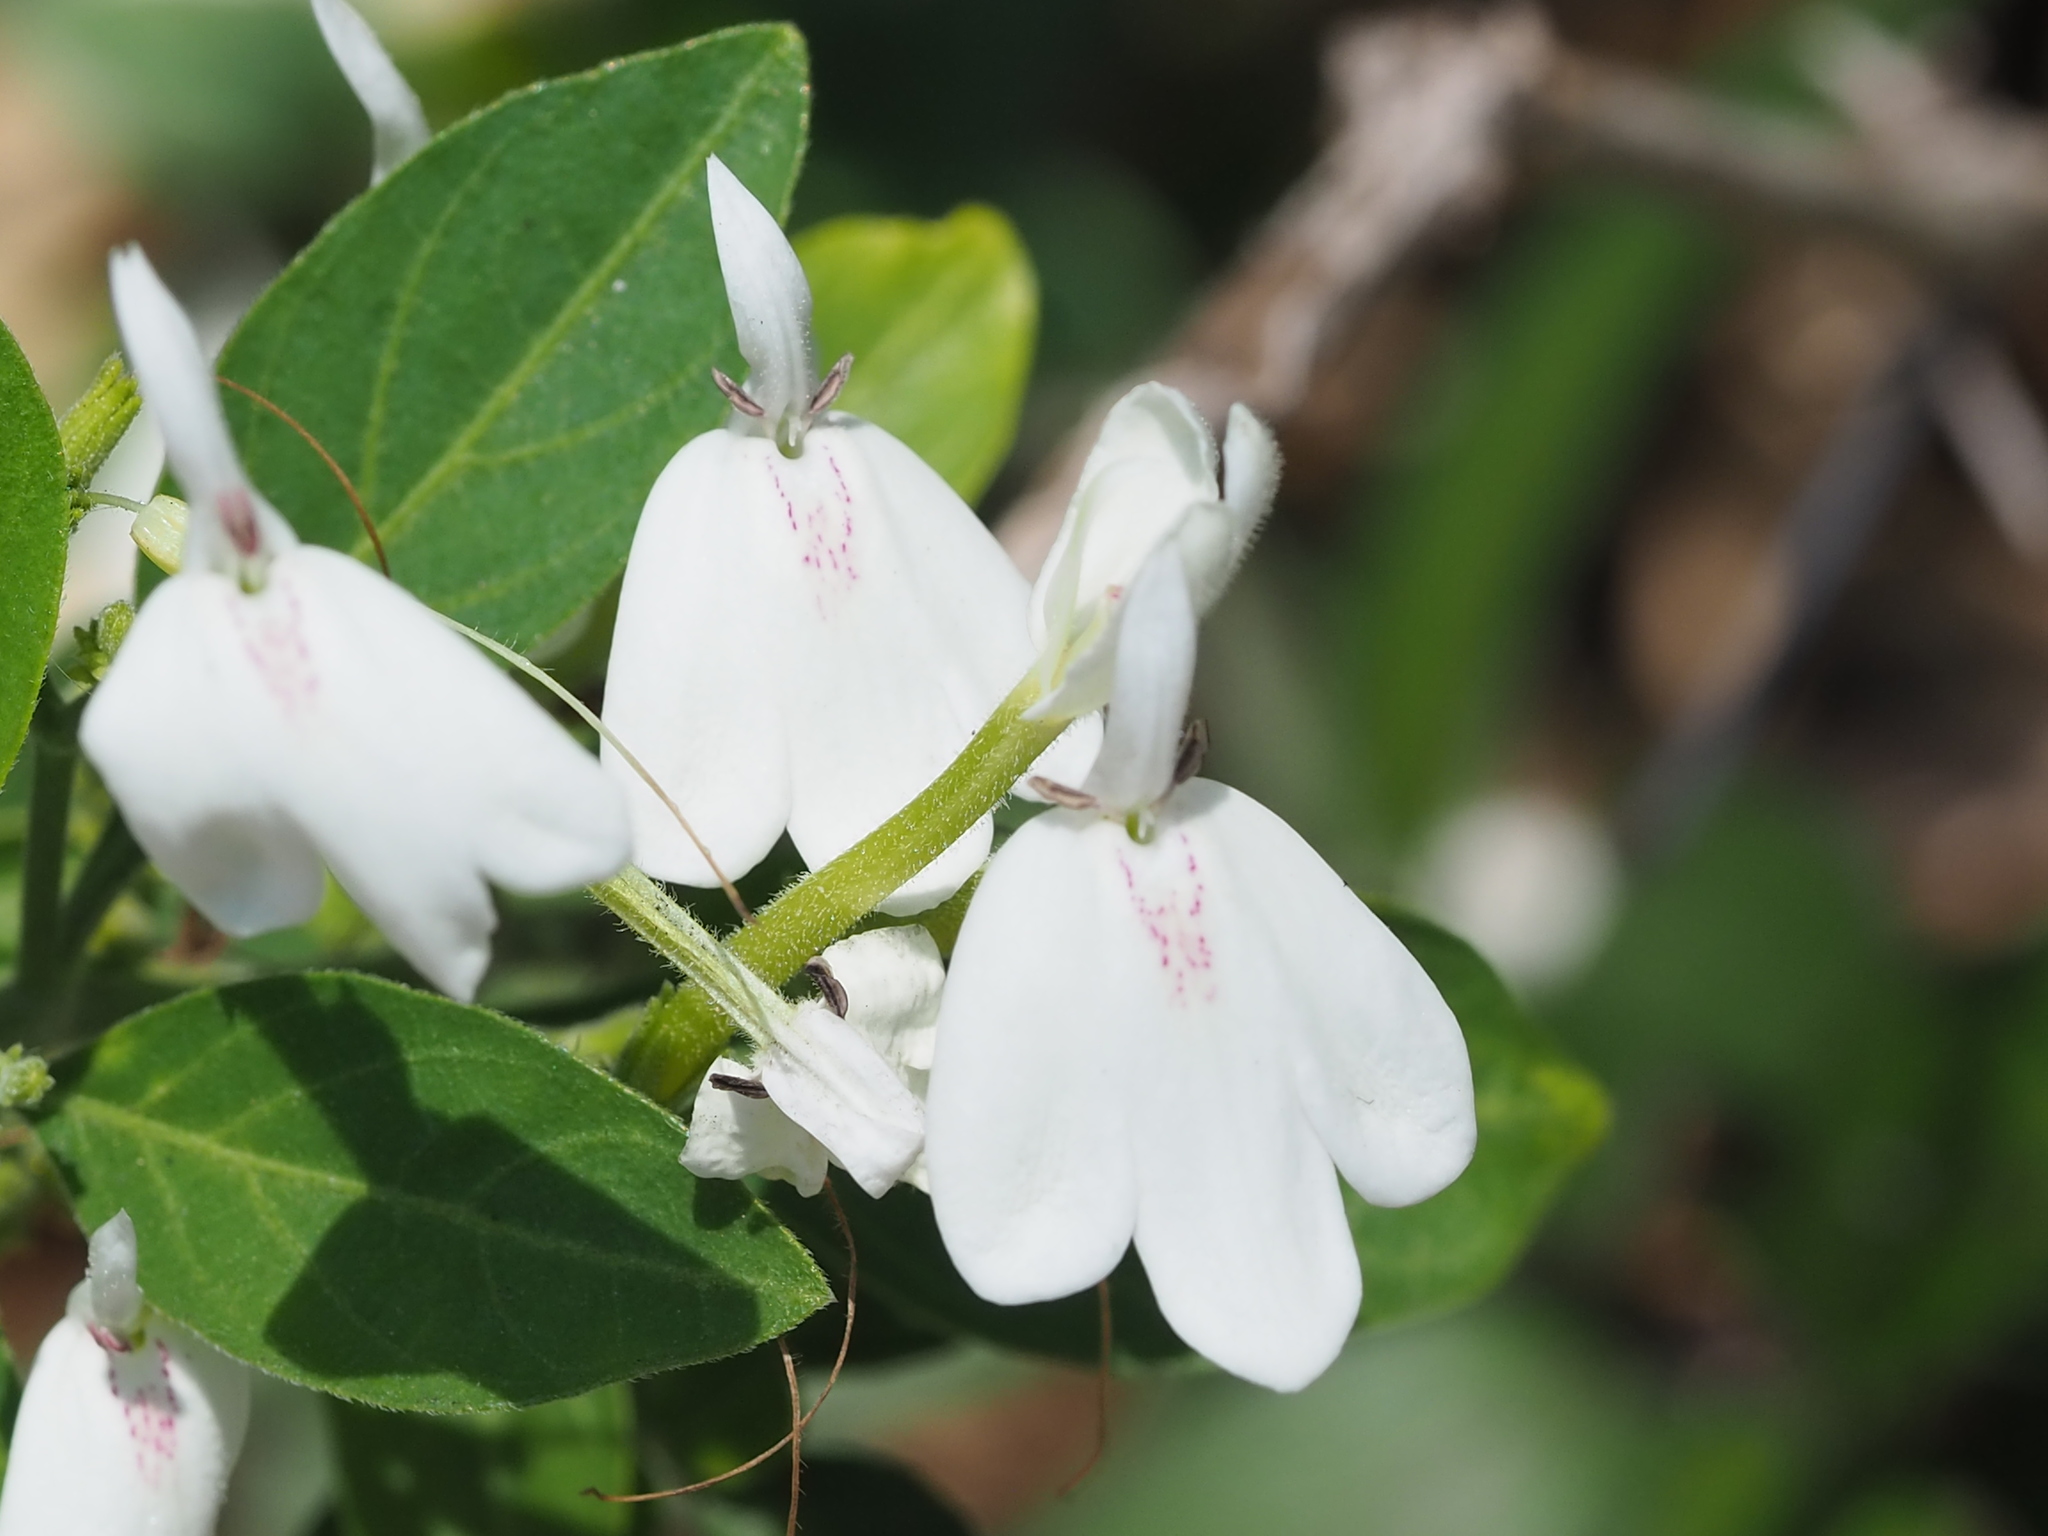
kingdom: Plantae
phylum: Tracheophyta
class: Magnoliopsida
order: Lamiales
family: Acanthaceae
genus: Rhinacanthus
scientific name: Rhinacanthus nasutus
